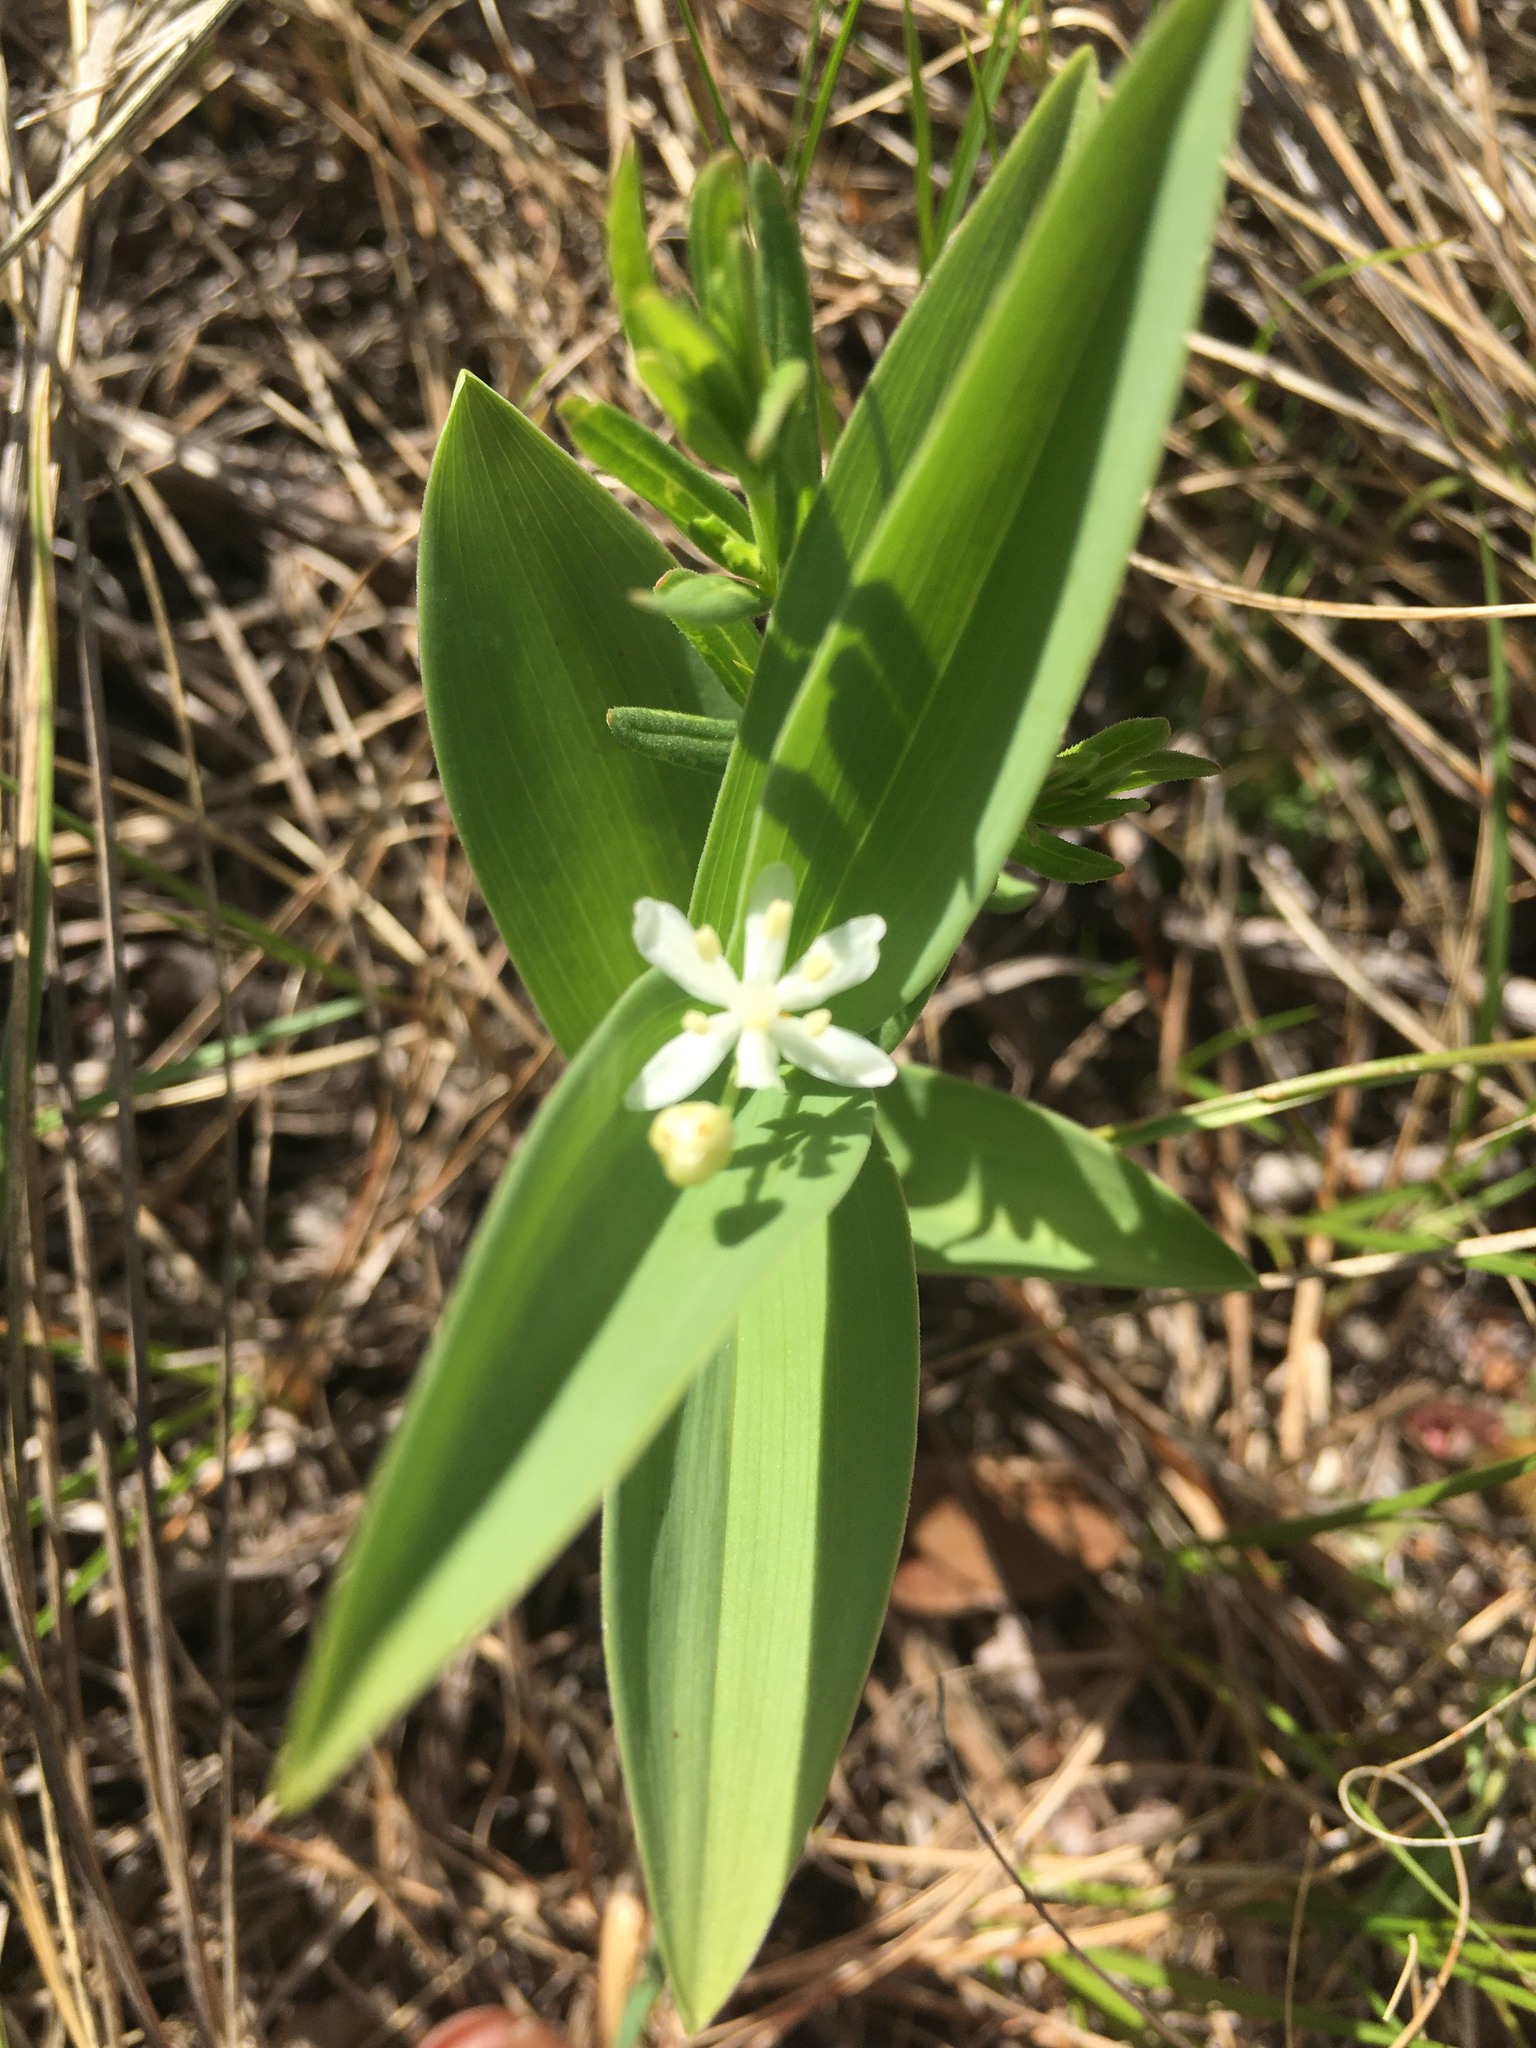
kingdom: Plantae
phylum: Tracheophyta
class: Liliopsida
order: Asparagales
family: Asparagaceae
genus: Maianthemum
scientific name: Maianthemum stellatum
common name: Little false solomon's seal
